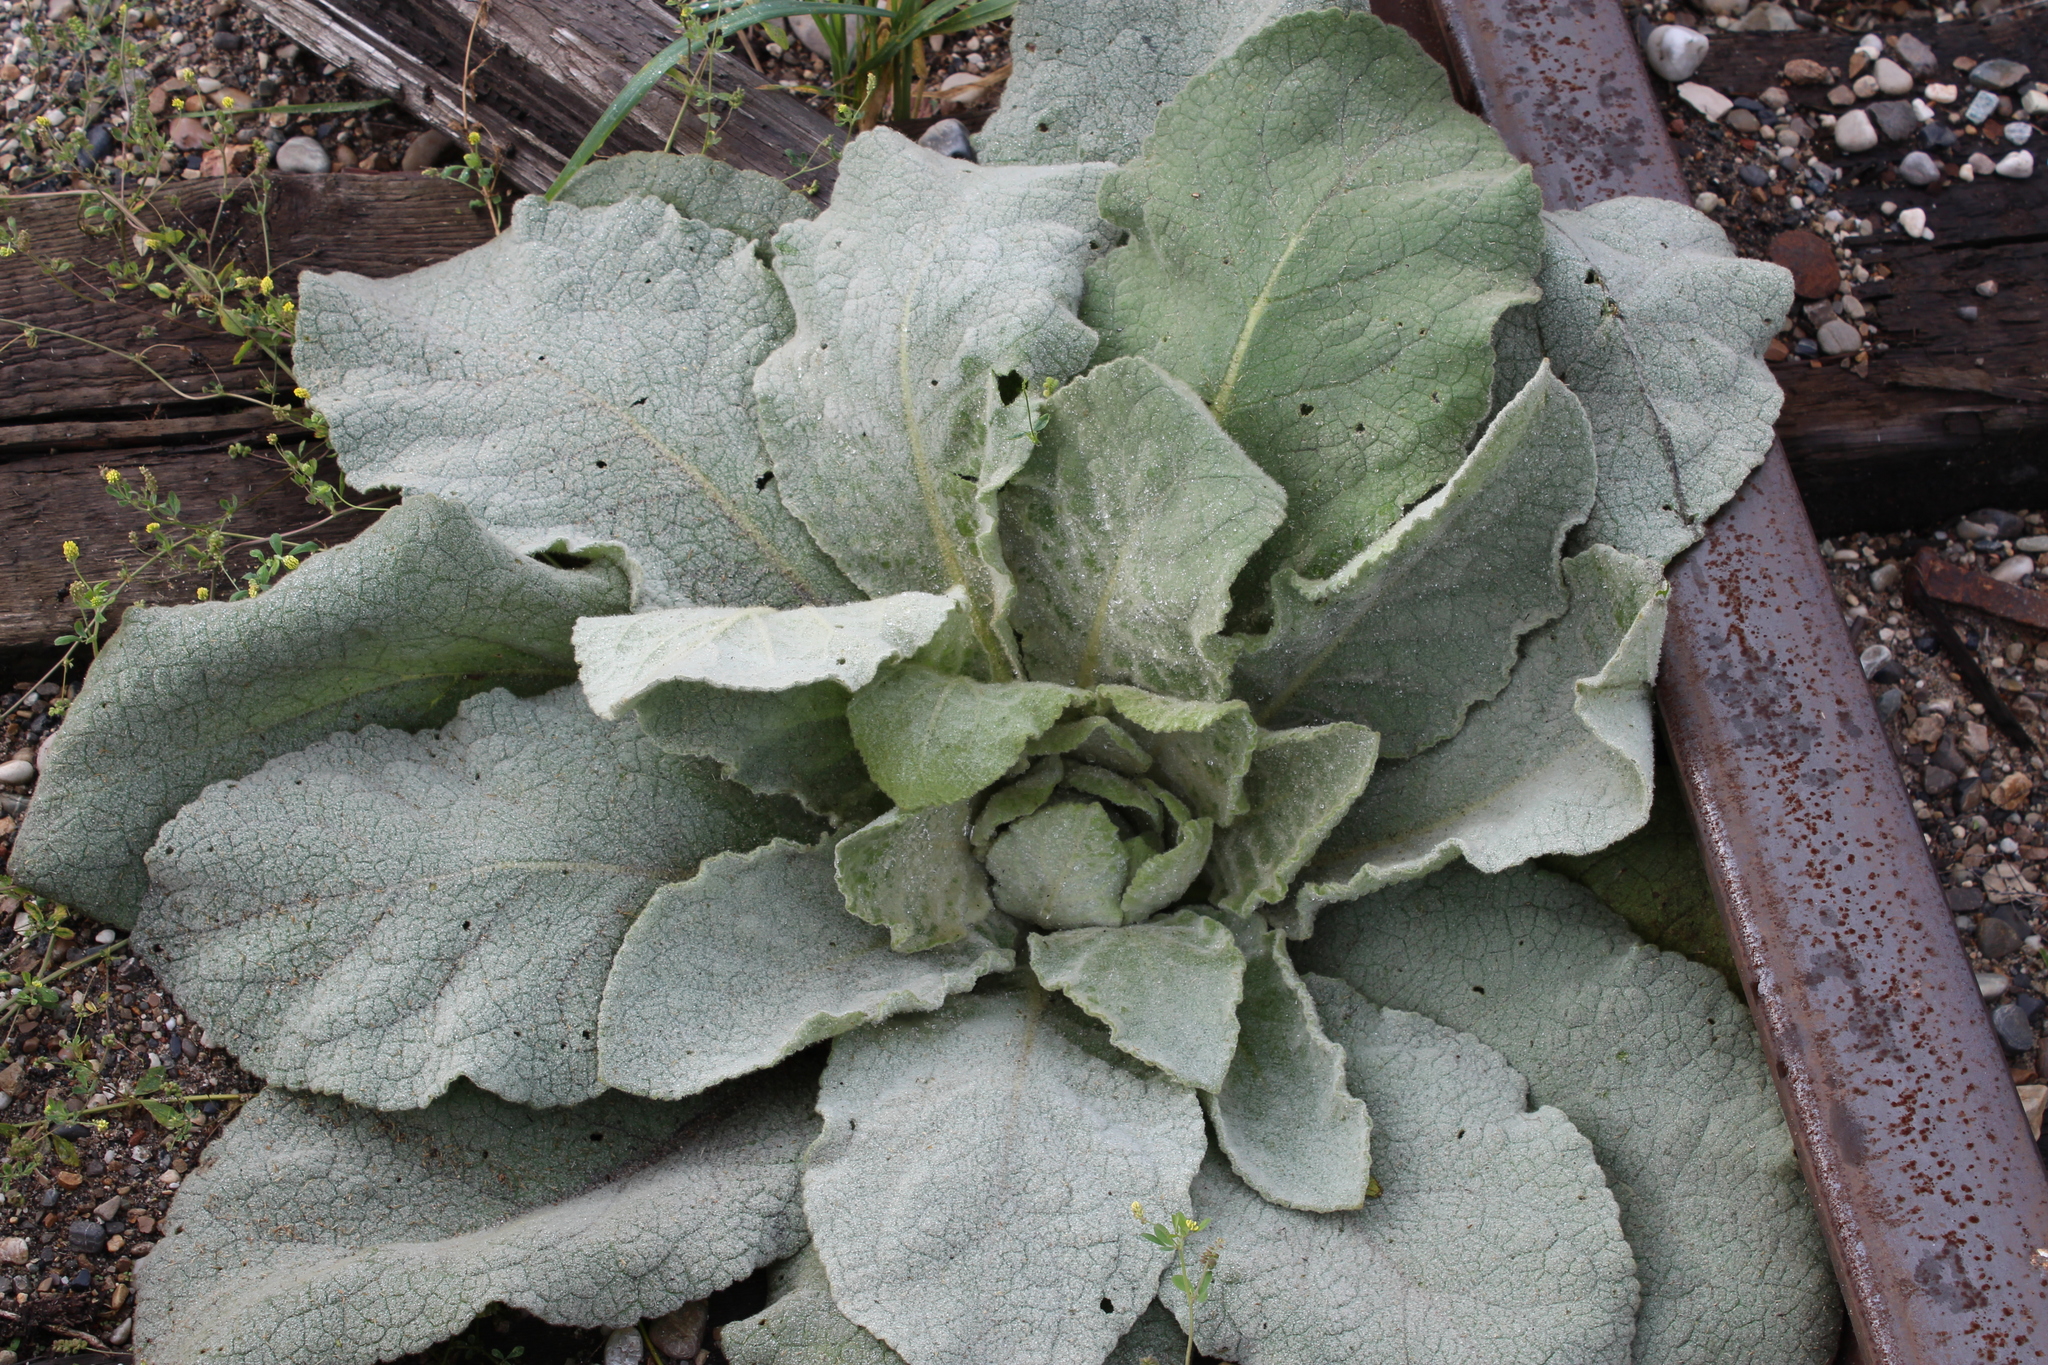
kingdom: Plantae
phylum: Tracheophyta
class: Magnoliopsida
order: Lamiales
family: Scrophulariaceae
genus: Verbascum
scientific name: Verbascum thapsus
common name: Common mullein
